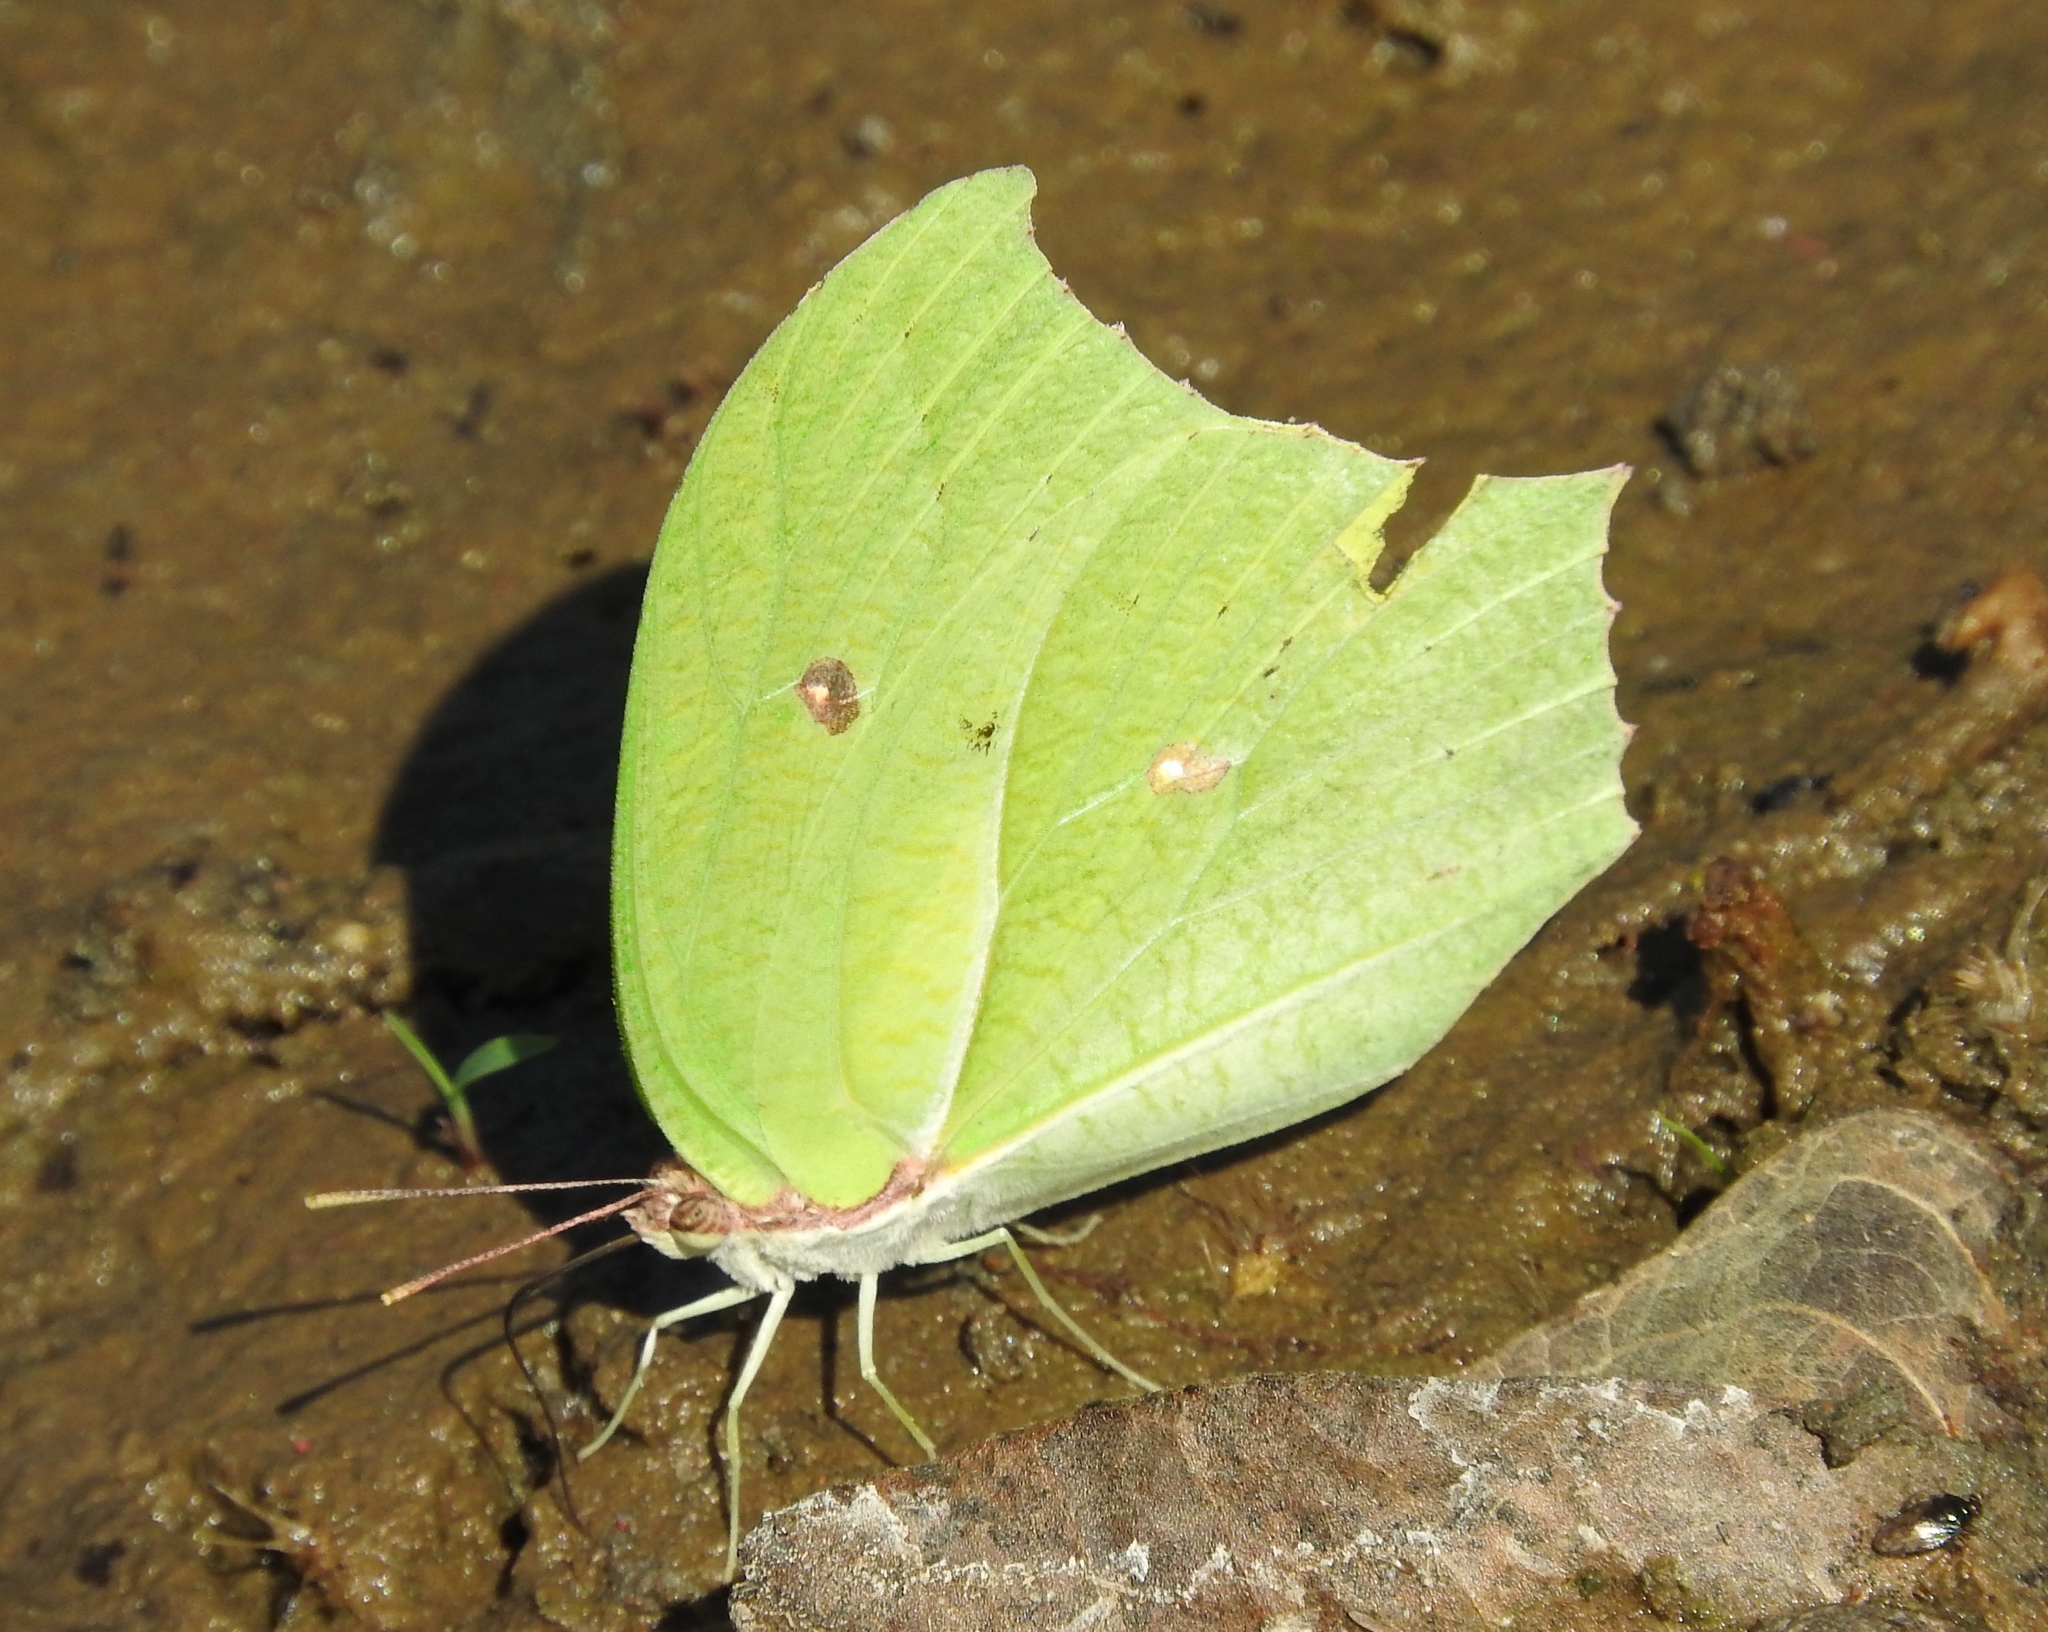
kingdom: Animalia
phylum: Arthropoda
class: Insecta
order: Lepidoptera
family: Pieridae
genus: Anteos
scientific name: Anteos maerula
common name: Angled sulphur
